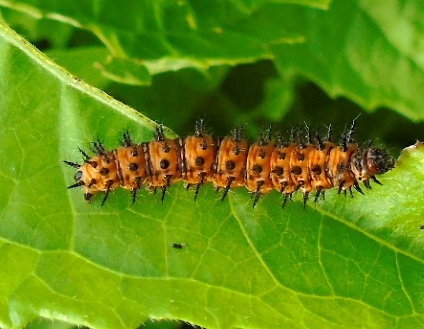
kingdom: Animalia
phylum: Arthropoda
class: Insecta
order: Lepidoptera
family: Nymphalidae
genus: Dione
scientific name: Dione vanillae
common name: Gulf fritillary
